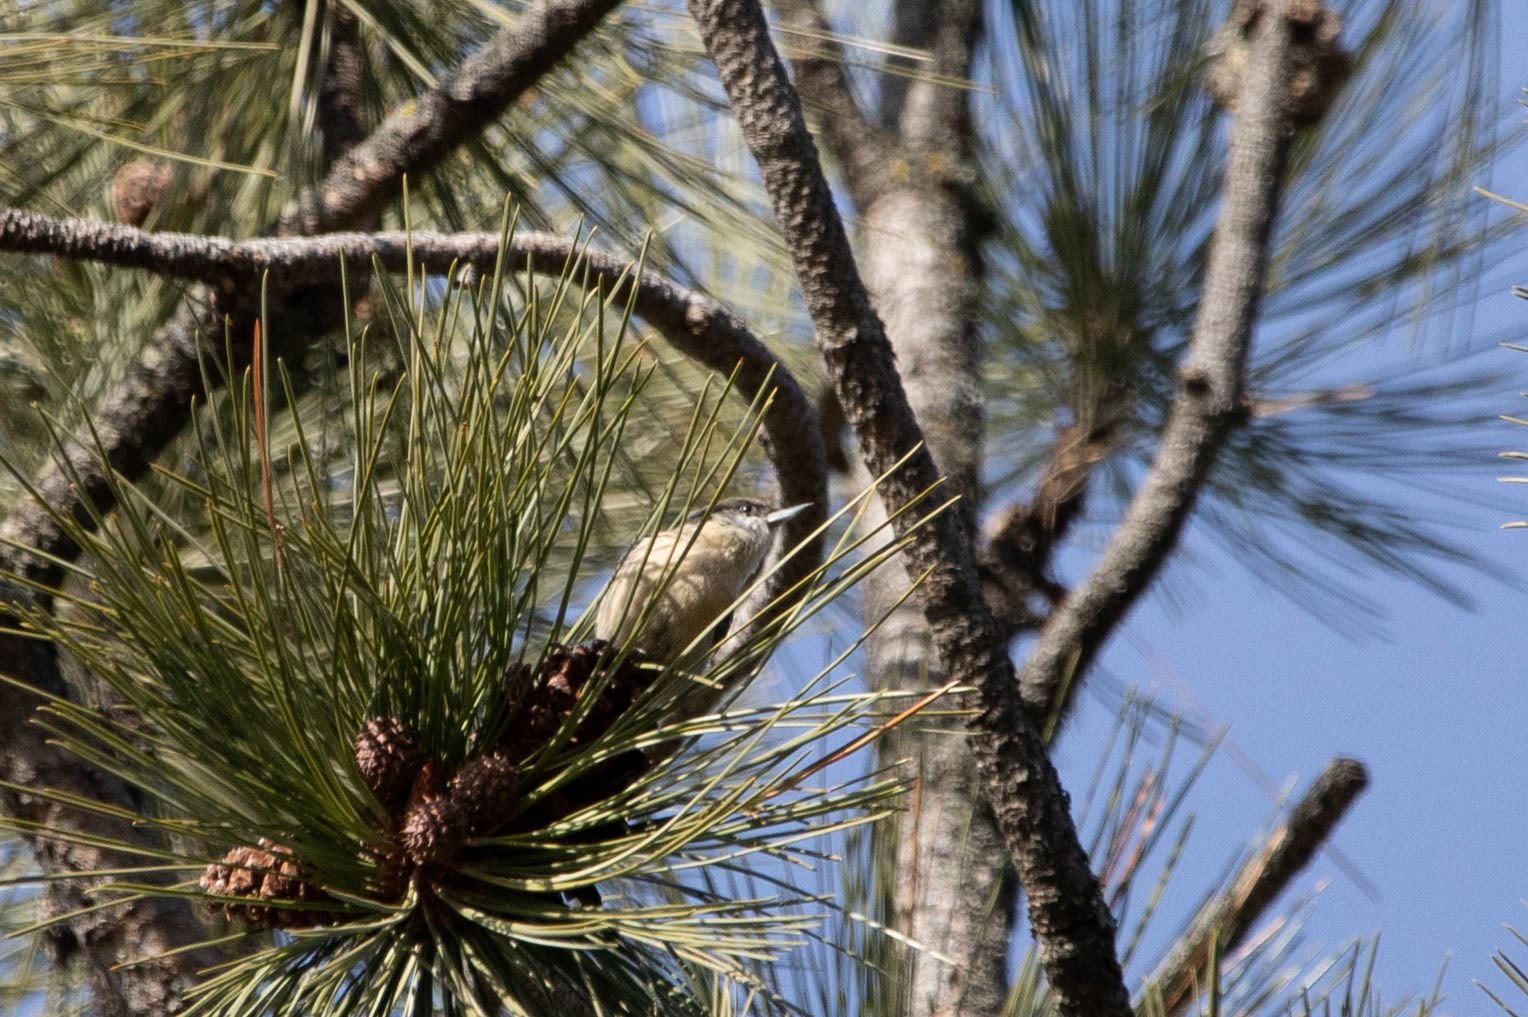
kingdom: Animalia
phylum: Chordata
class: Aves
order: Passeriformes
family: Sittidae
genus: Sitta
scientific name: Sitta pygmaea
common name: Pygmy nuthatch
